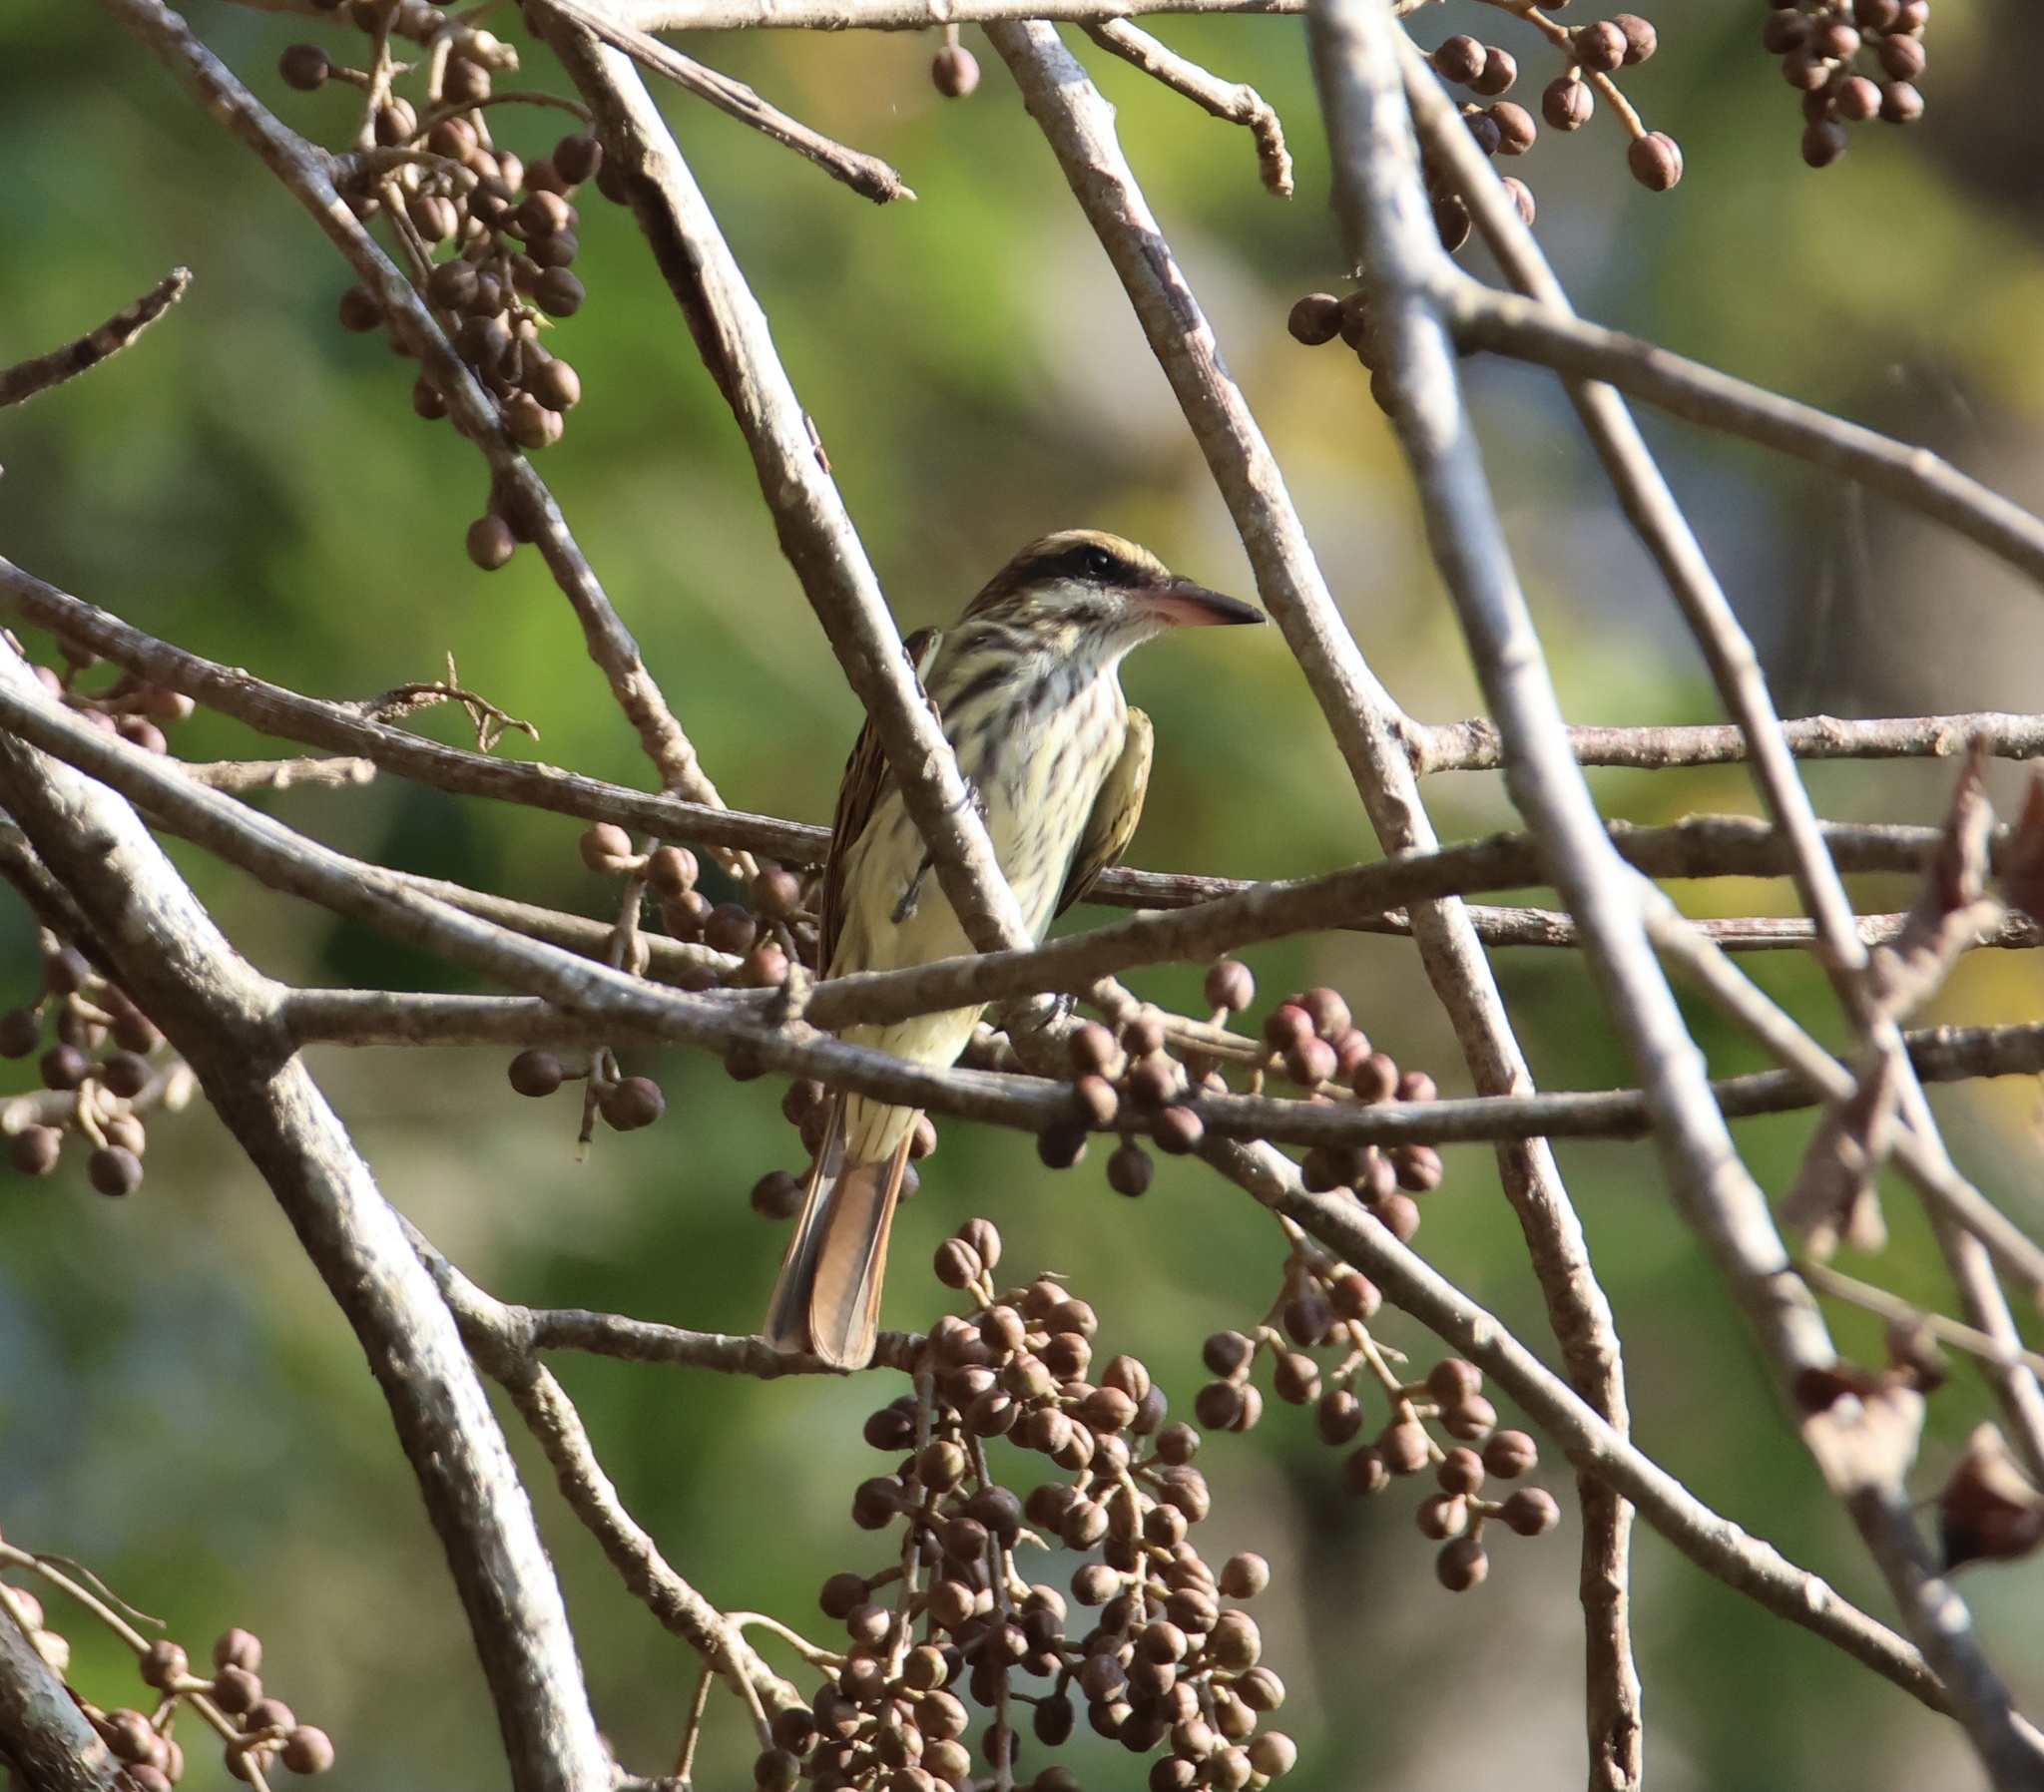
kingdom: Animalia
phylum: Chordata
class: Aves
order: Passeriformes
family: Tyrannidae
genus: Myiodynastes
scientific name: Myiodynastes maculatus
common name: Streaked flycatcher
